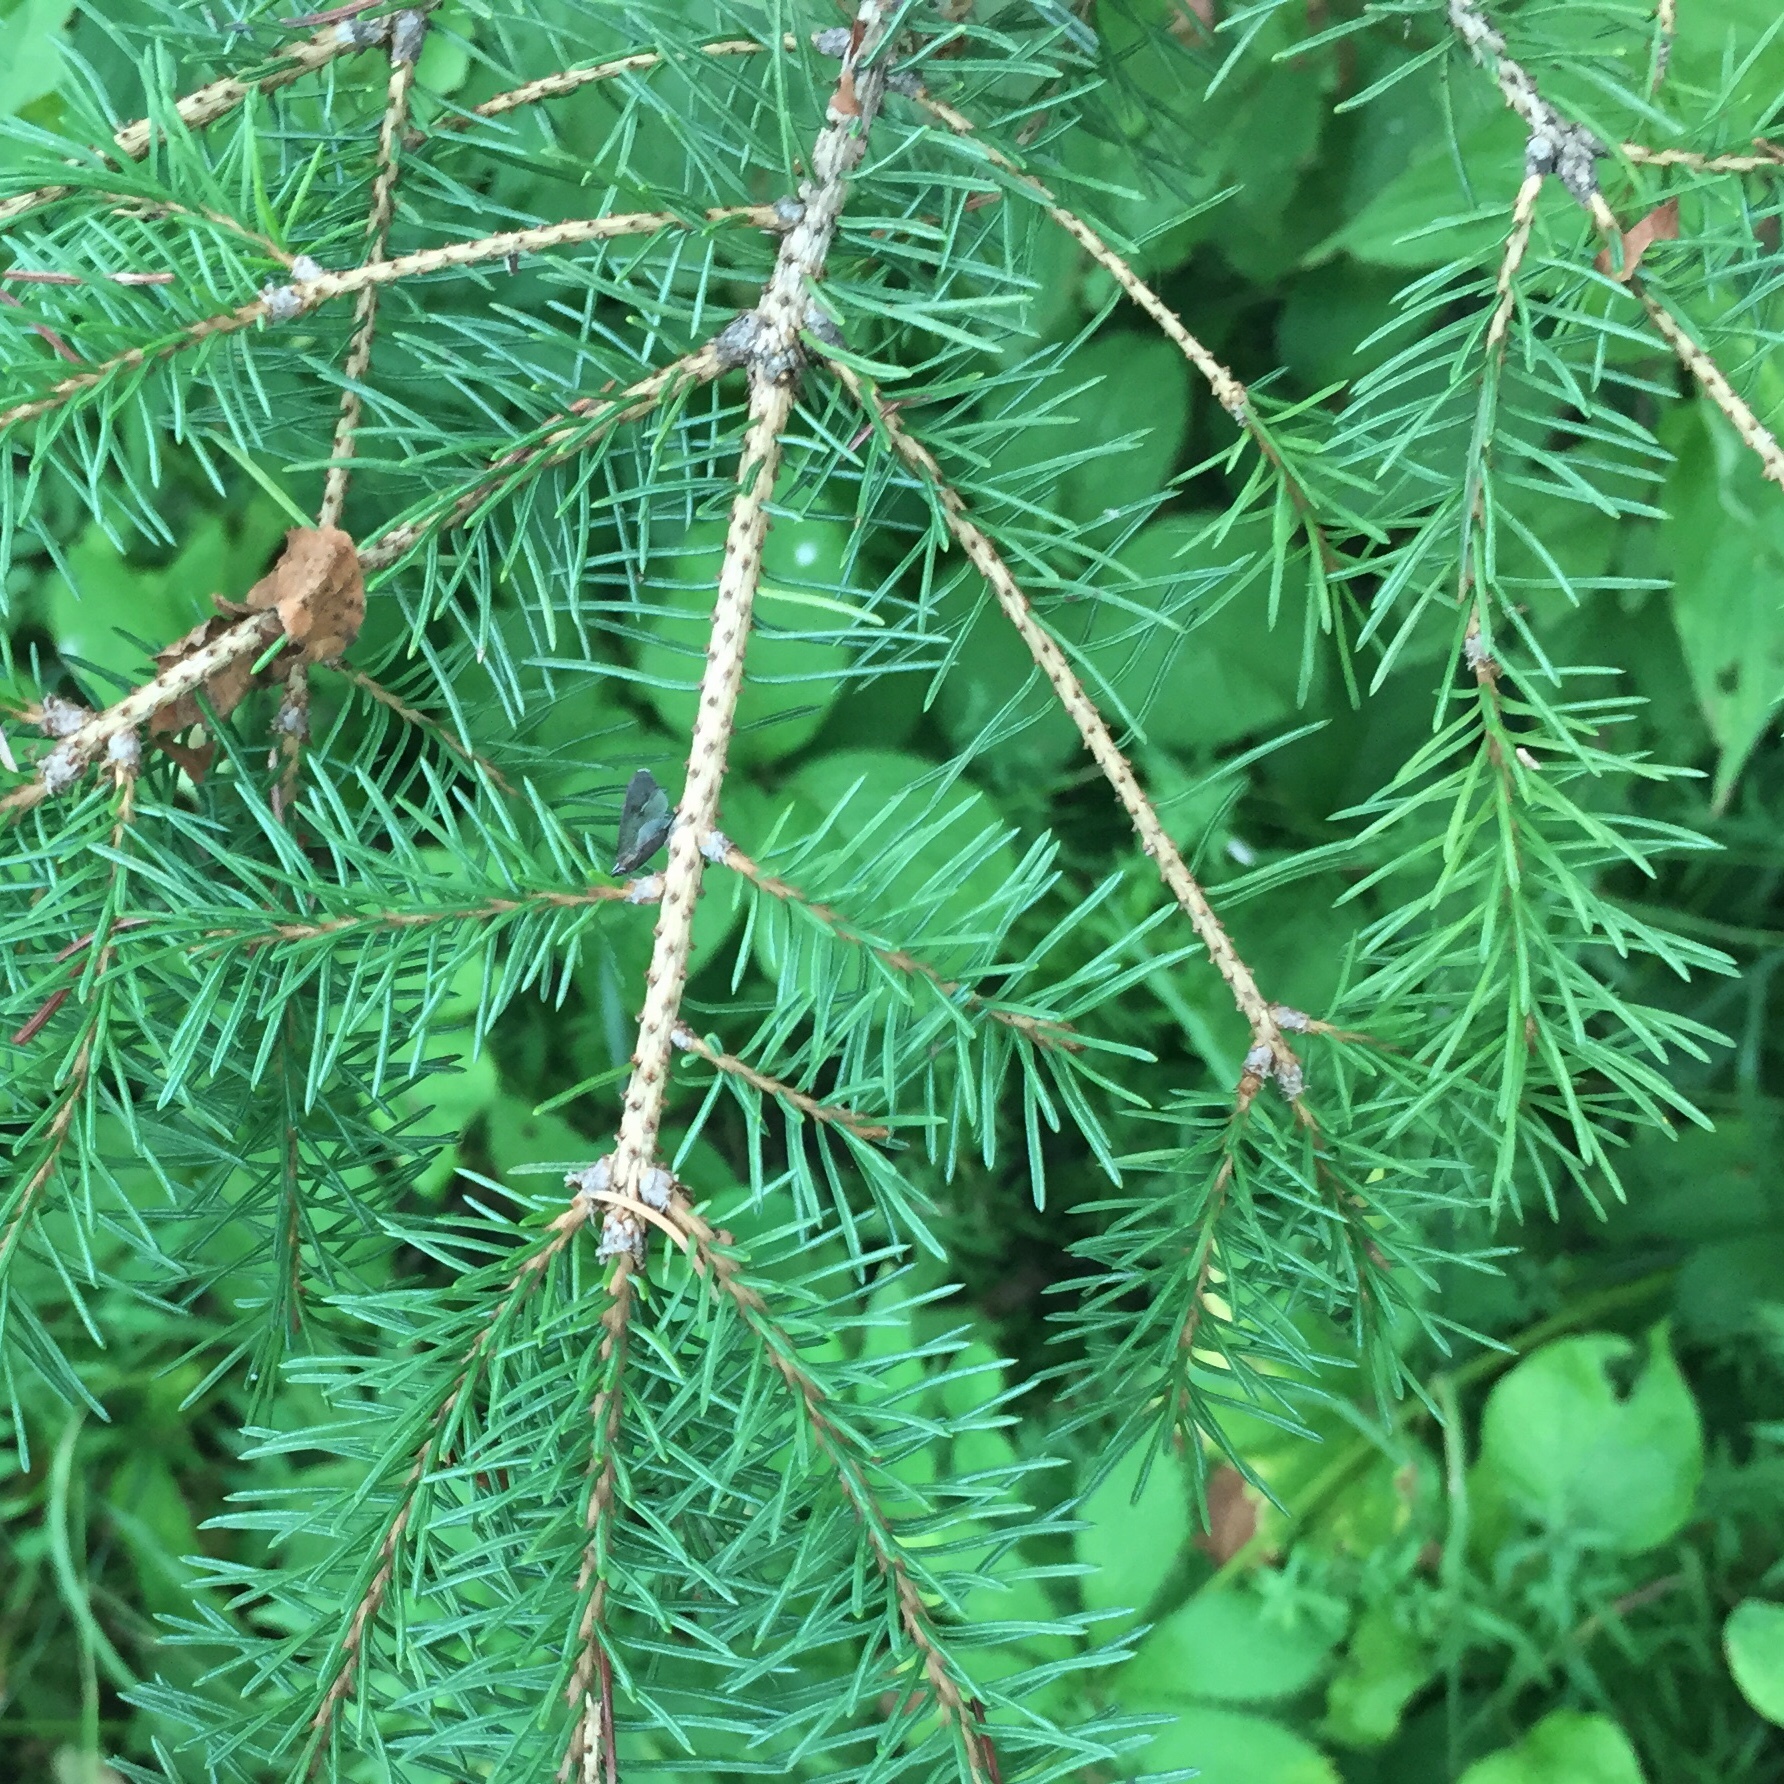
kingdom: Plantae
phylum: Tracheophyta
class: Pinopsida
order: Pinales
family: Pinaceae
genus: Picea
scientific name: Picea glauca
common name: White spruce
